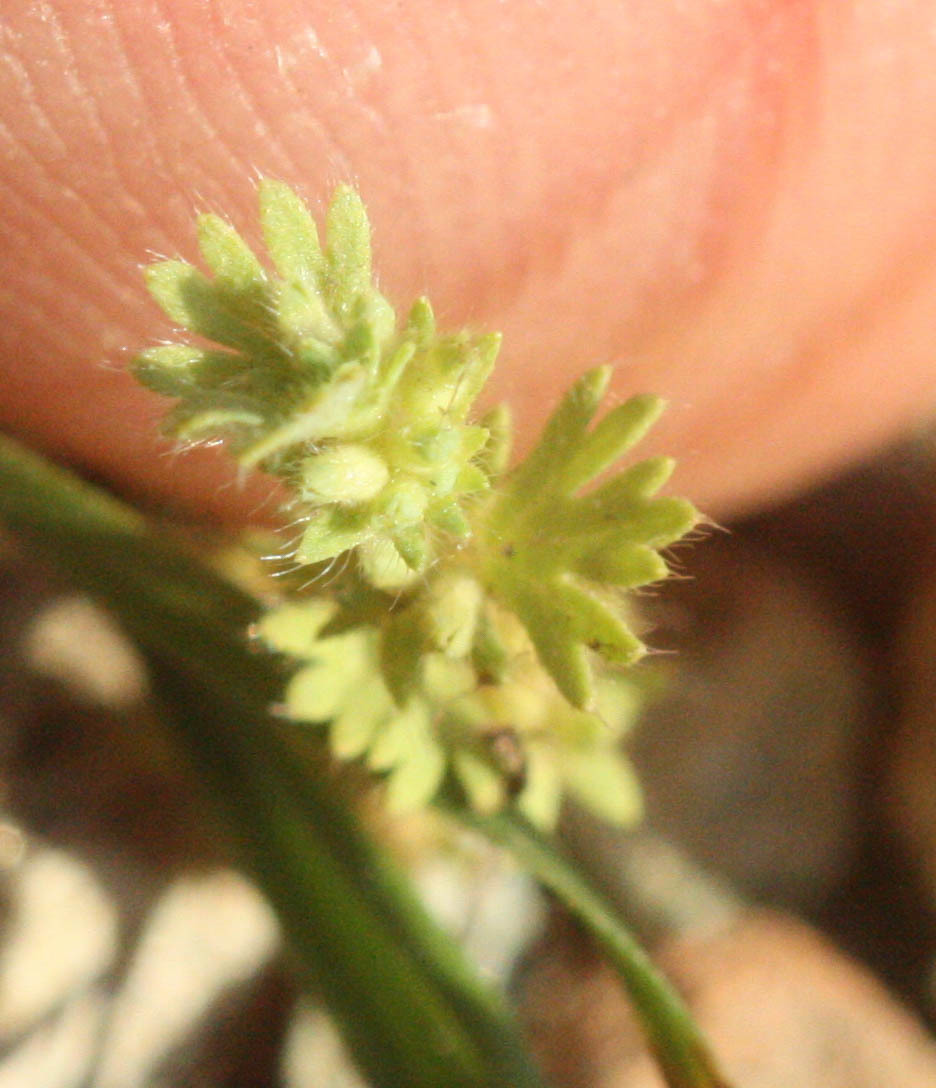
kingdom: Plantae
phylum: Tracheophyta
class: Magnoliopsida
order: Rosales
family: Rosaceae
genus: Aphanes
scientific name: Aphanes arvensis
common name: Parsley-piert
